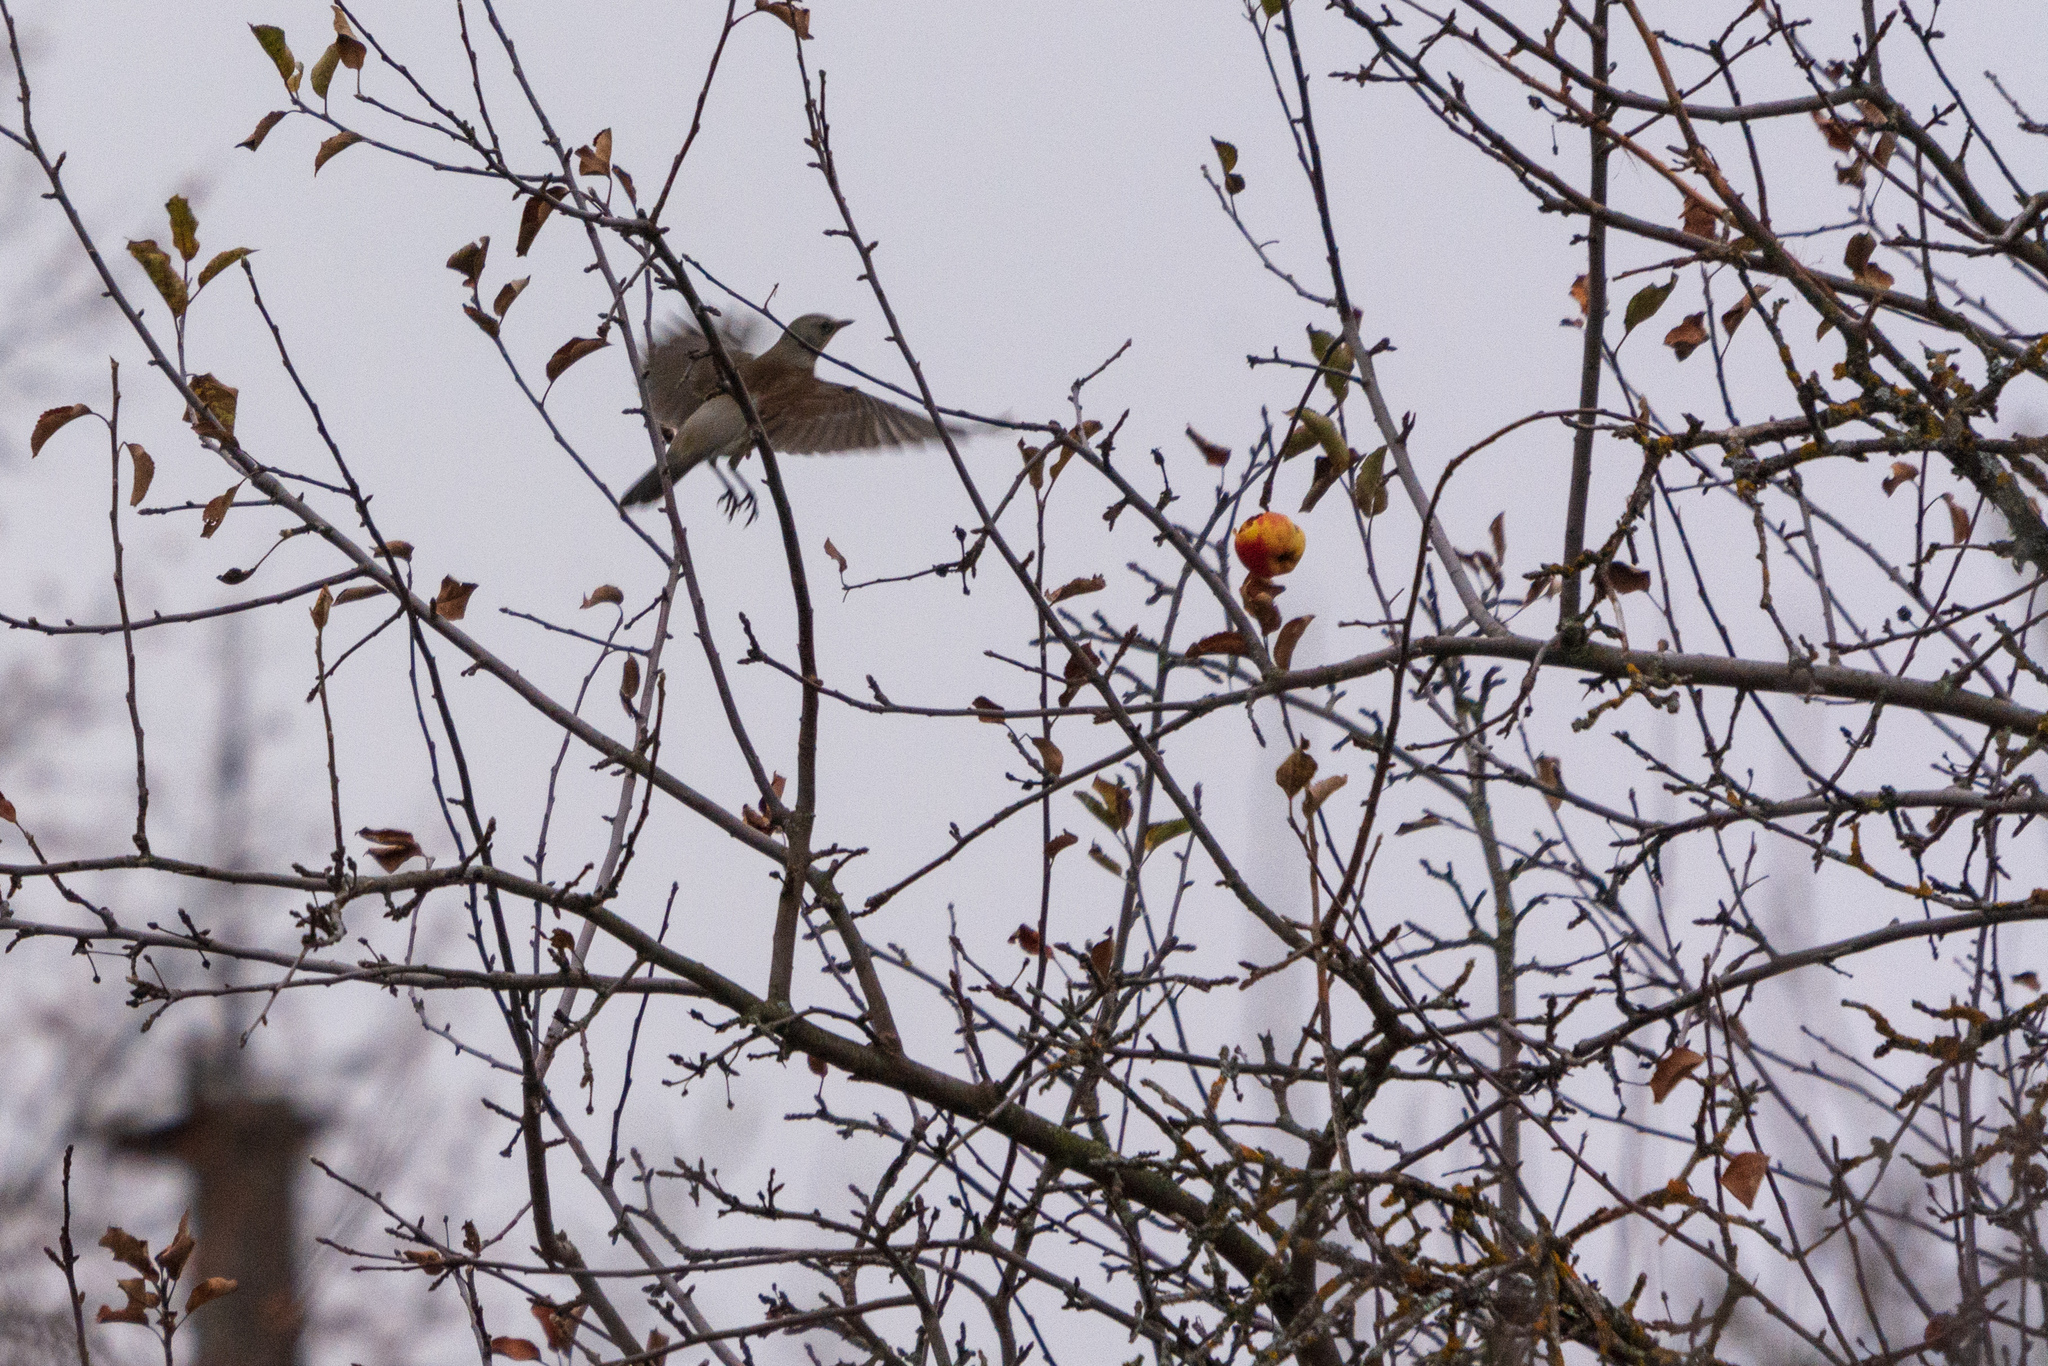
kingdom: Animalia
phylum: Chordata
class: Aves
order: Passeriformes
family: Turdidae
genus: Turdus
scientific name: Turdus pilaris
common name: Fieldfare
